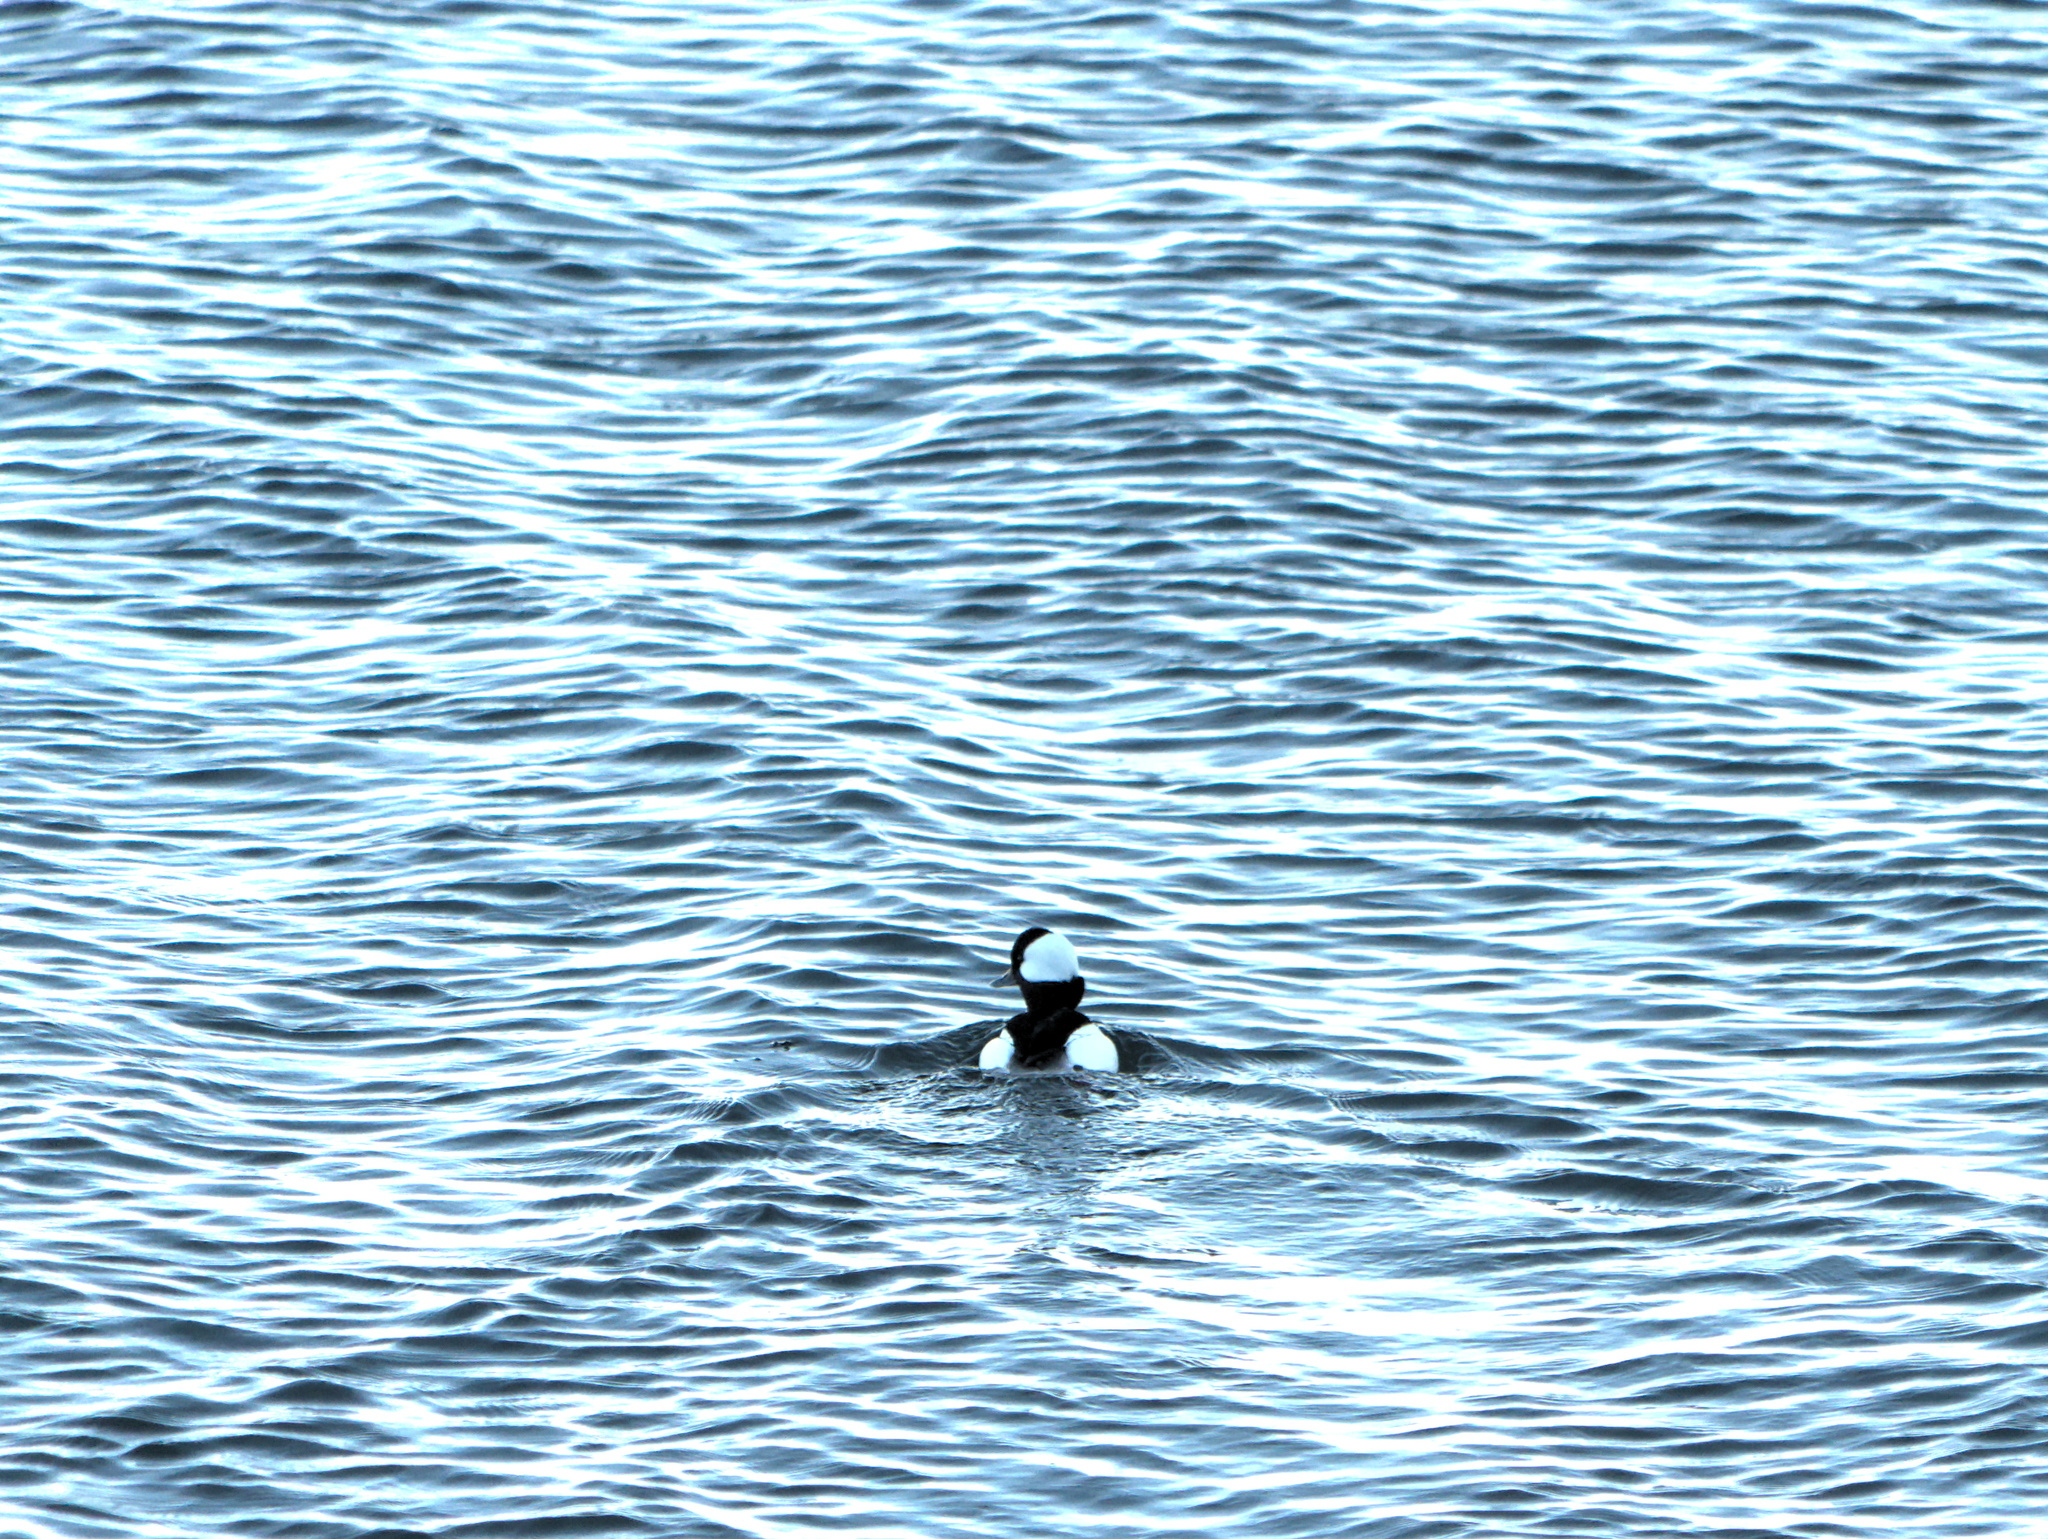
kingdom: Animalia
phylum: Chordata
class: Aves
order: Anseriformes
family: Anatidae
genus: Bucephala
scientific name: Bucephala albeola
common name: Bufflehead
